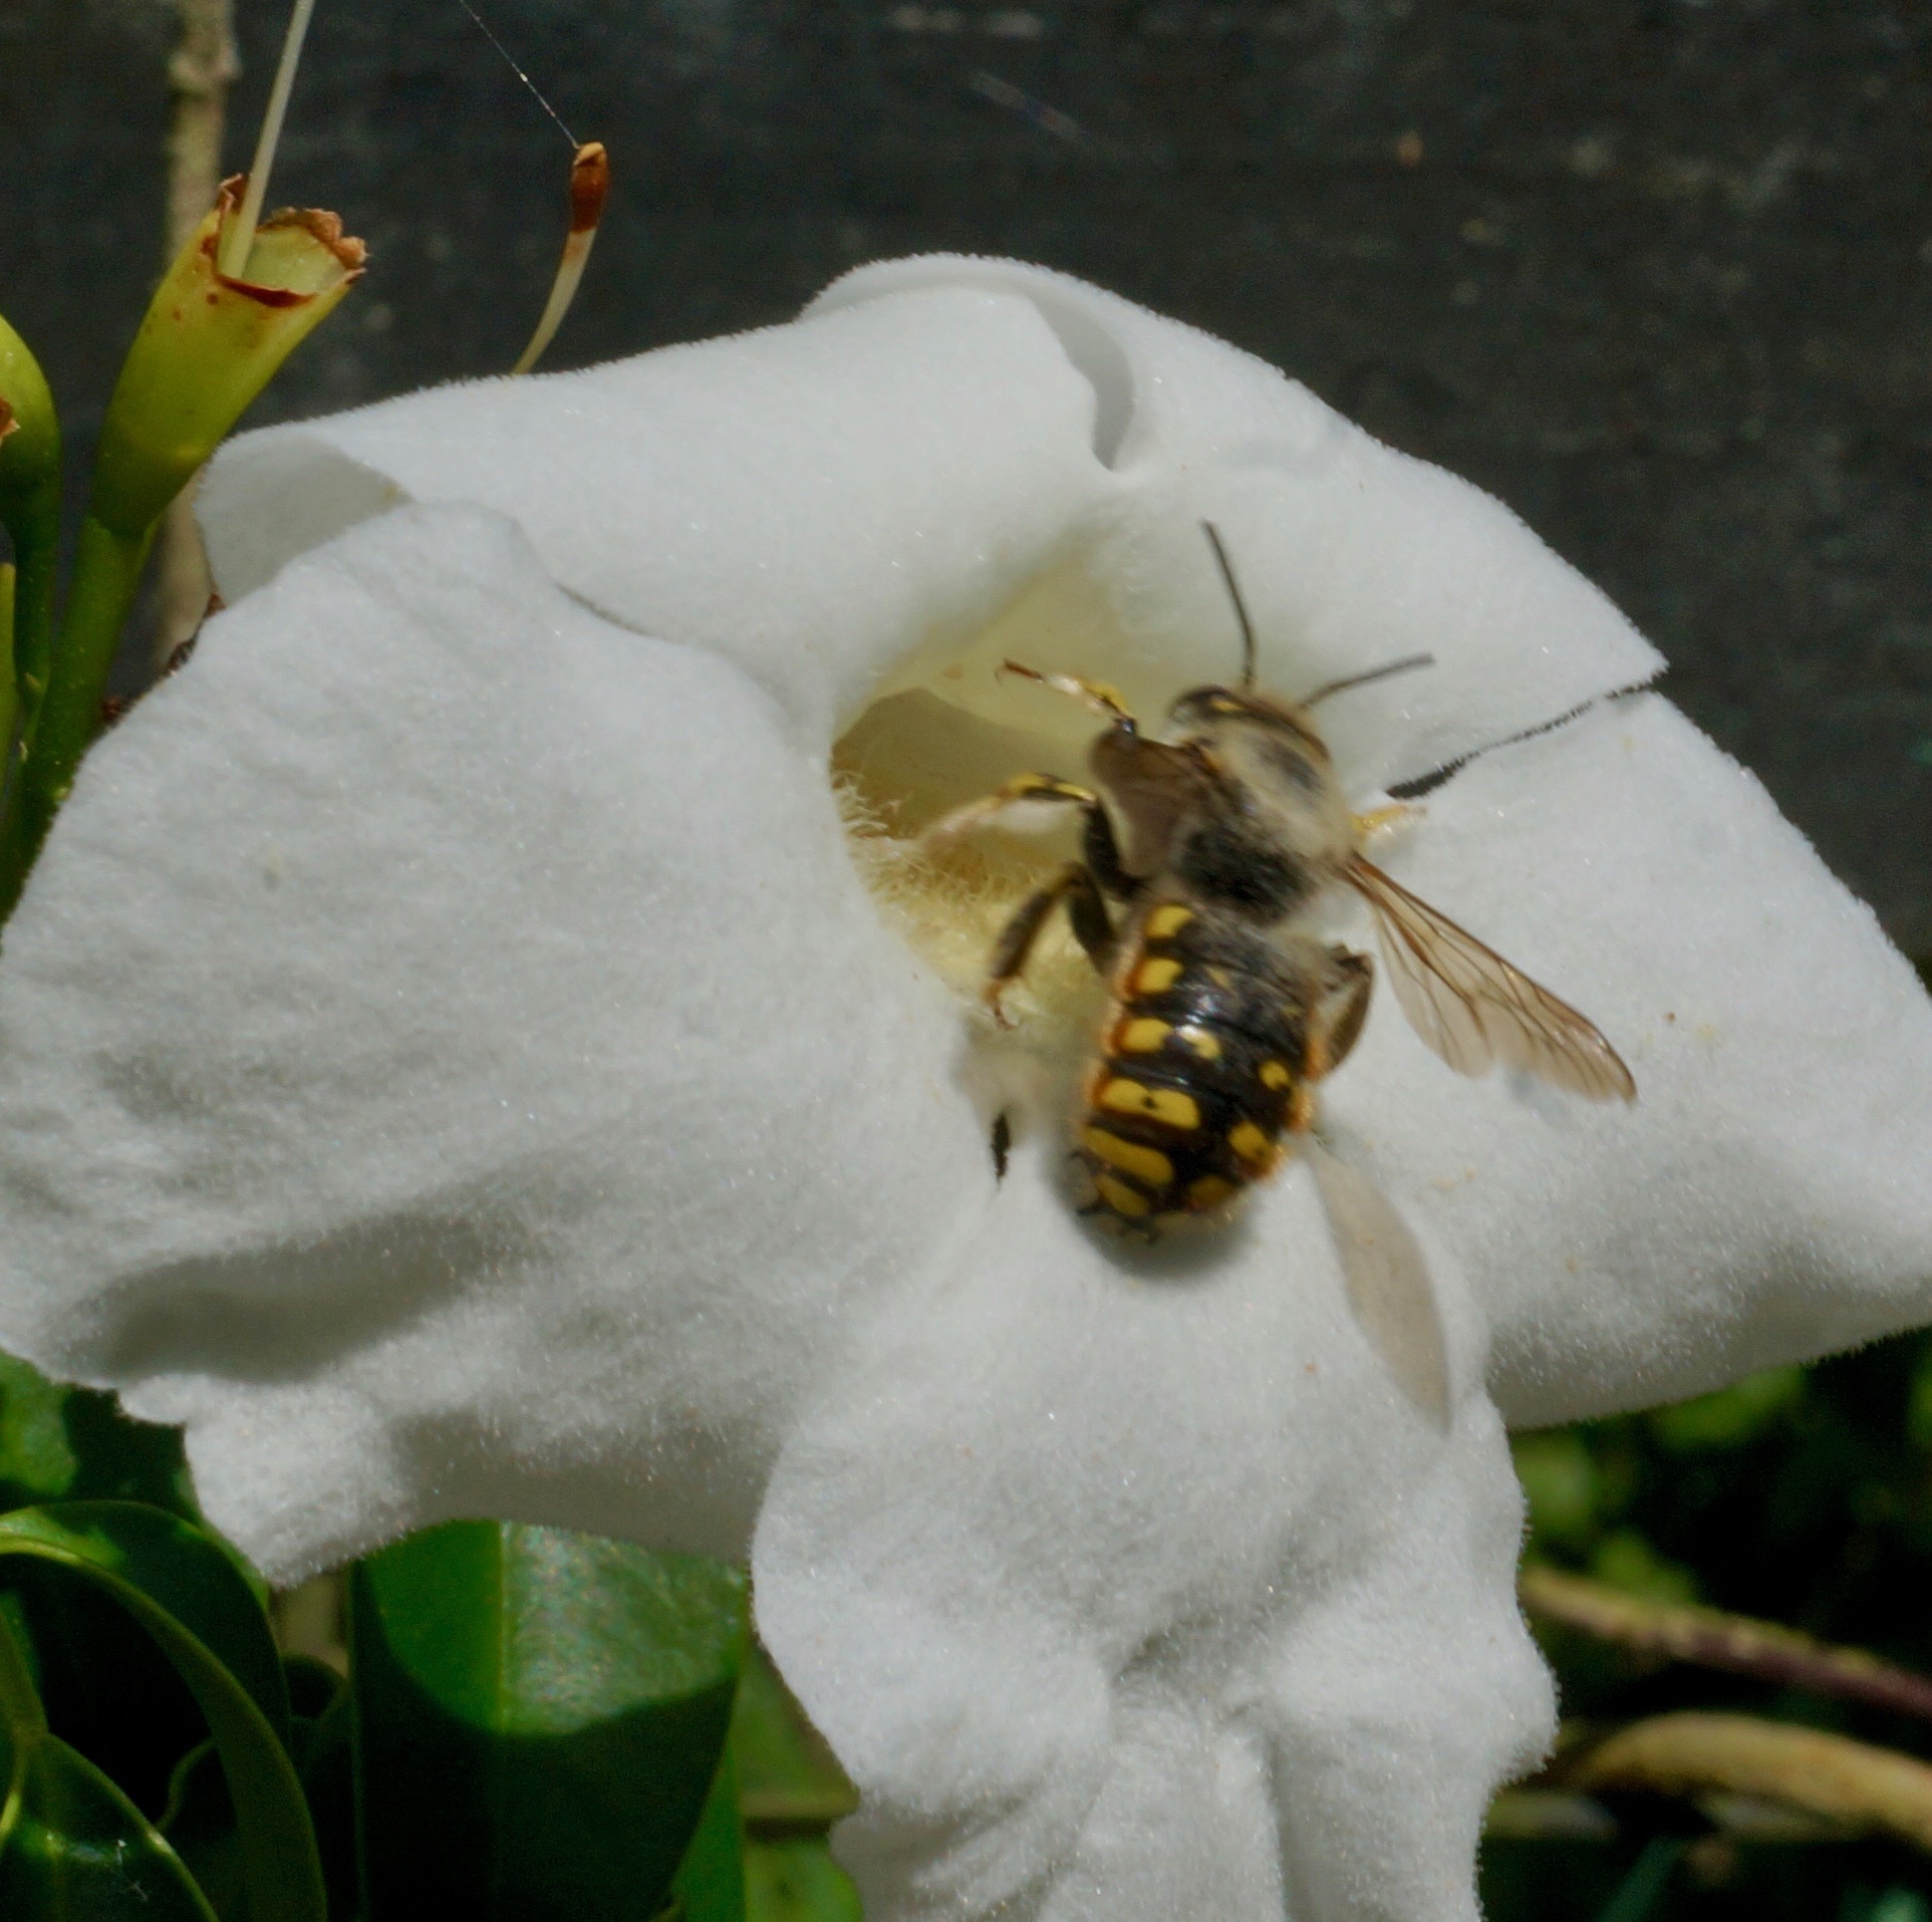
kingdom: Animalia
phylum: Arthropoda
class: Insecta
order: Hymenoptera
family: Megachilidae
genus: Anthidium
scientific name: Anthidium manicatum
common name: Wool carder bee
